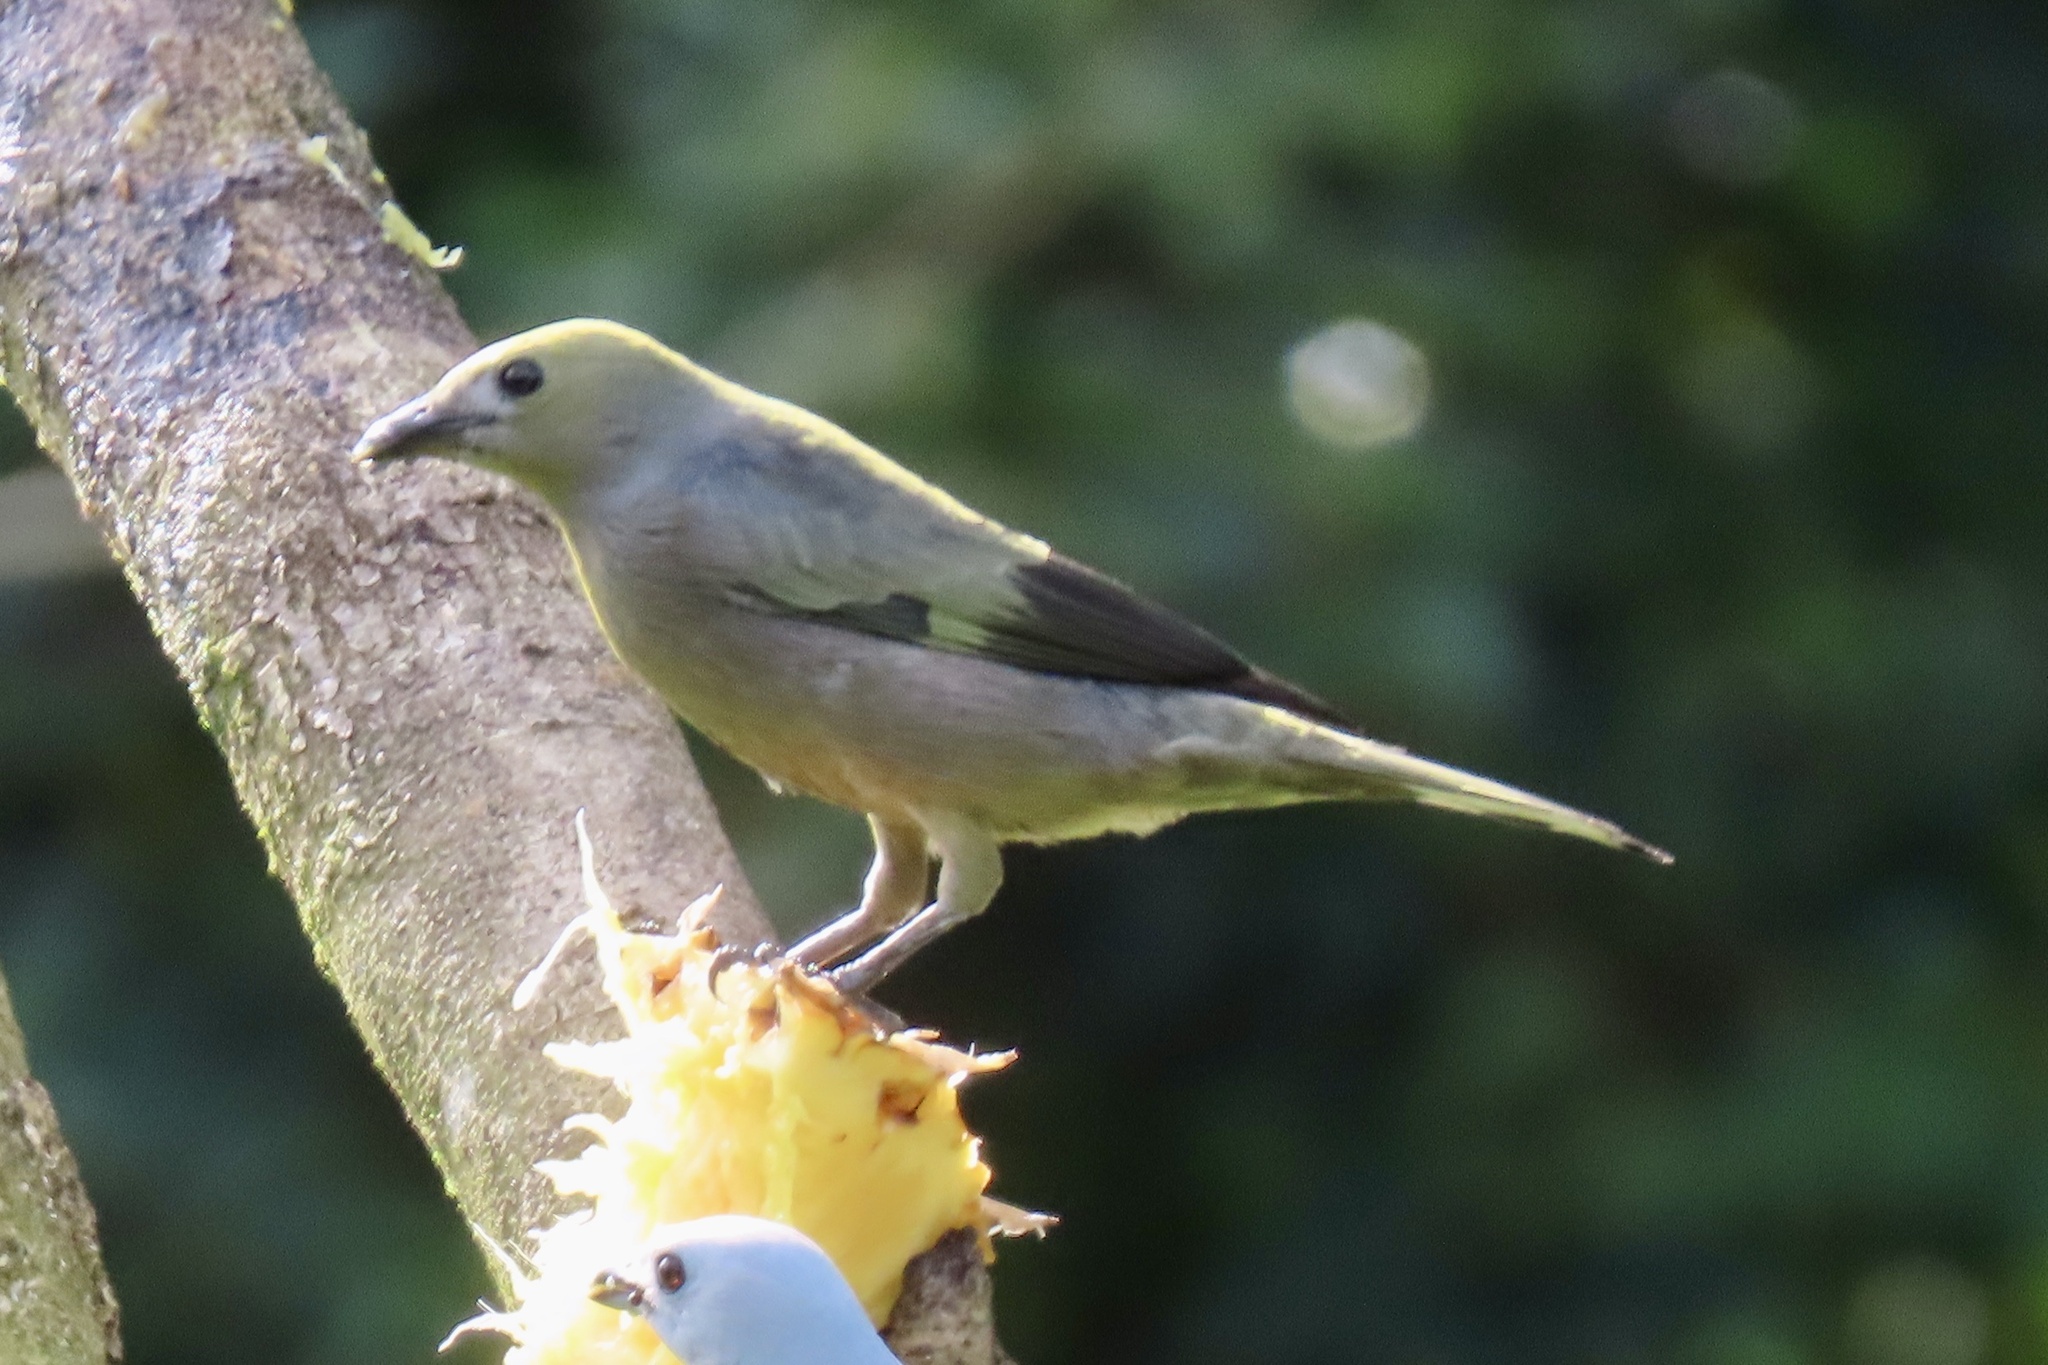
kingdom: Animalia
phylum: Chordata
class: Aves
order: Passeriformes
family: Thraupidae
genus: Thraupis
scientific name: Thraupis palmarum
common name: Palm tanager
